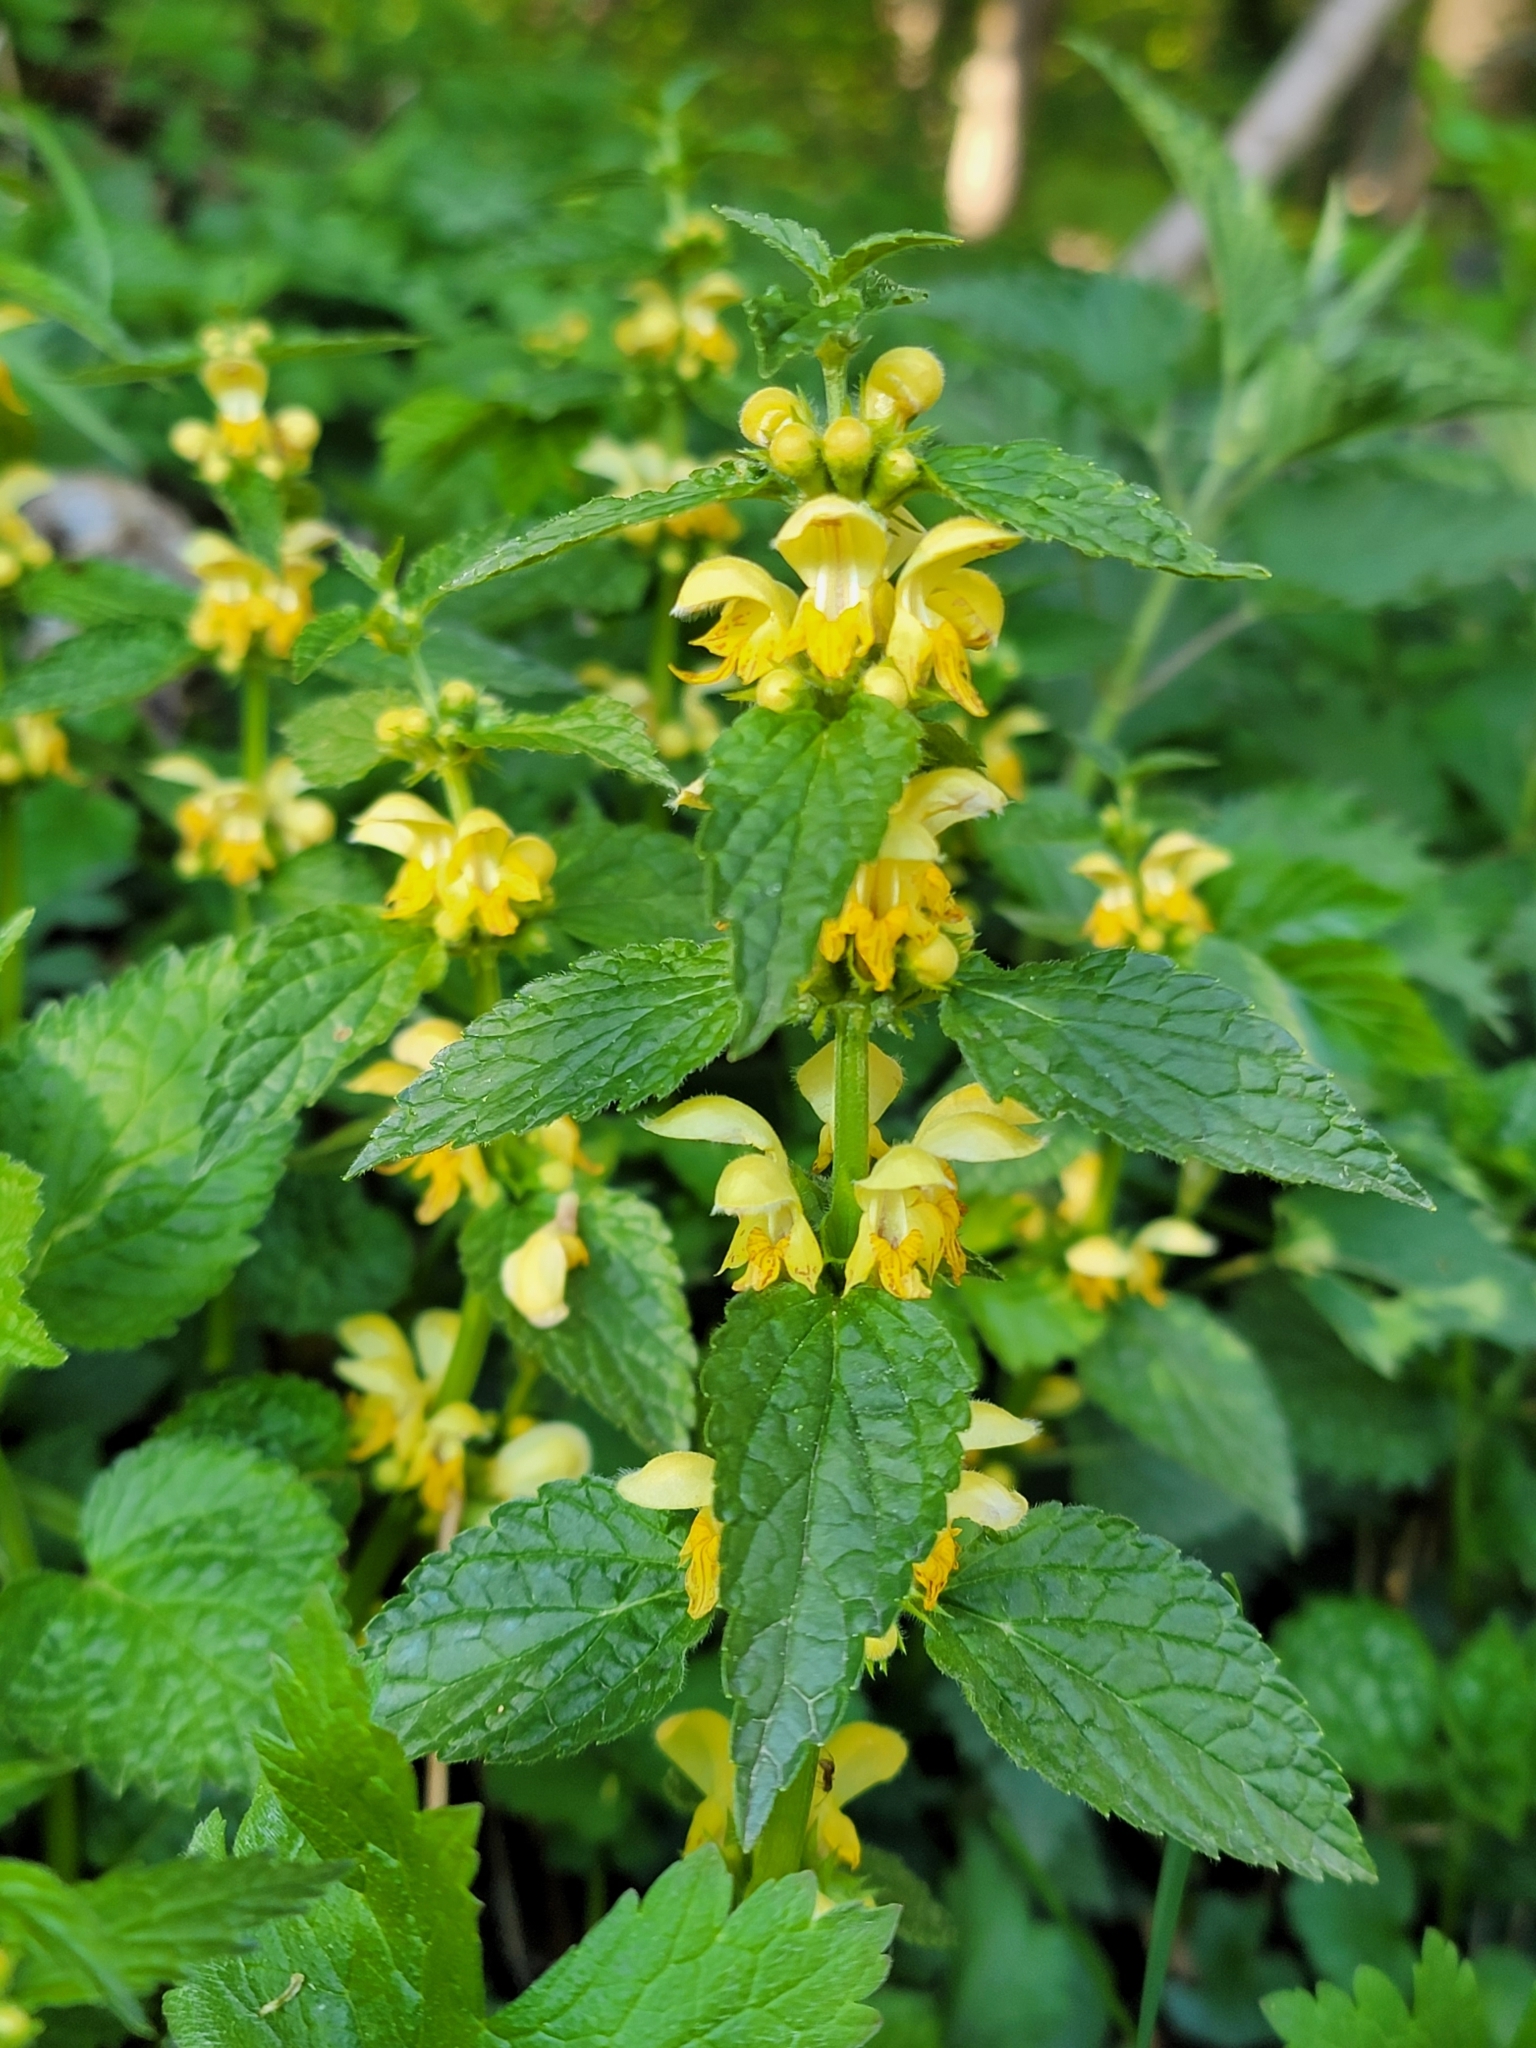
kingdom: Plantae
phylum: Tracheophyta
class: Magnoliopsida
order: Lamiales
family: Lamiaceae
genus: Lamium
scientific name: Lamium galeobdolon
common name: Yellow archangel
